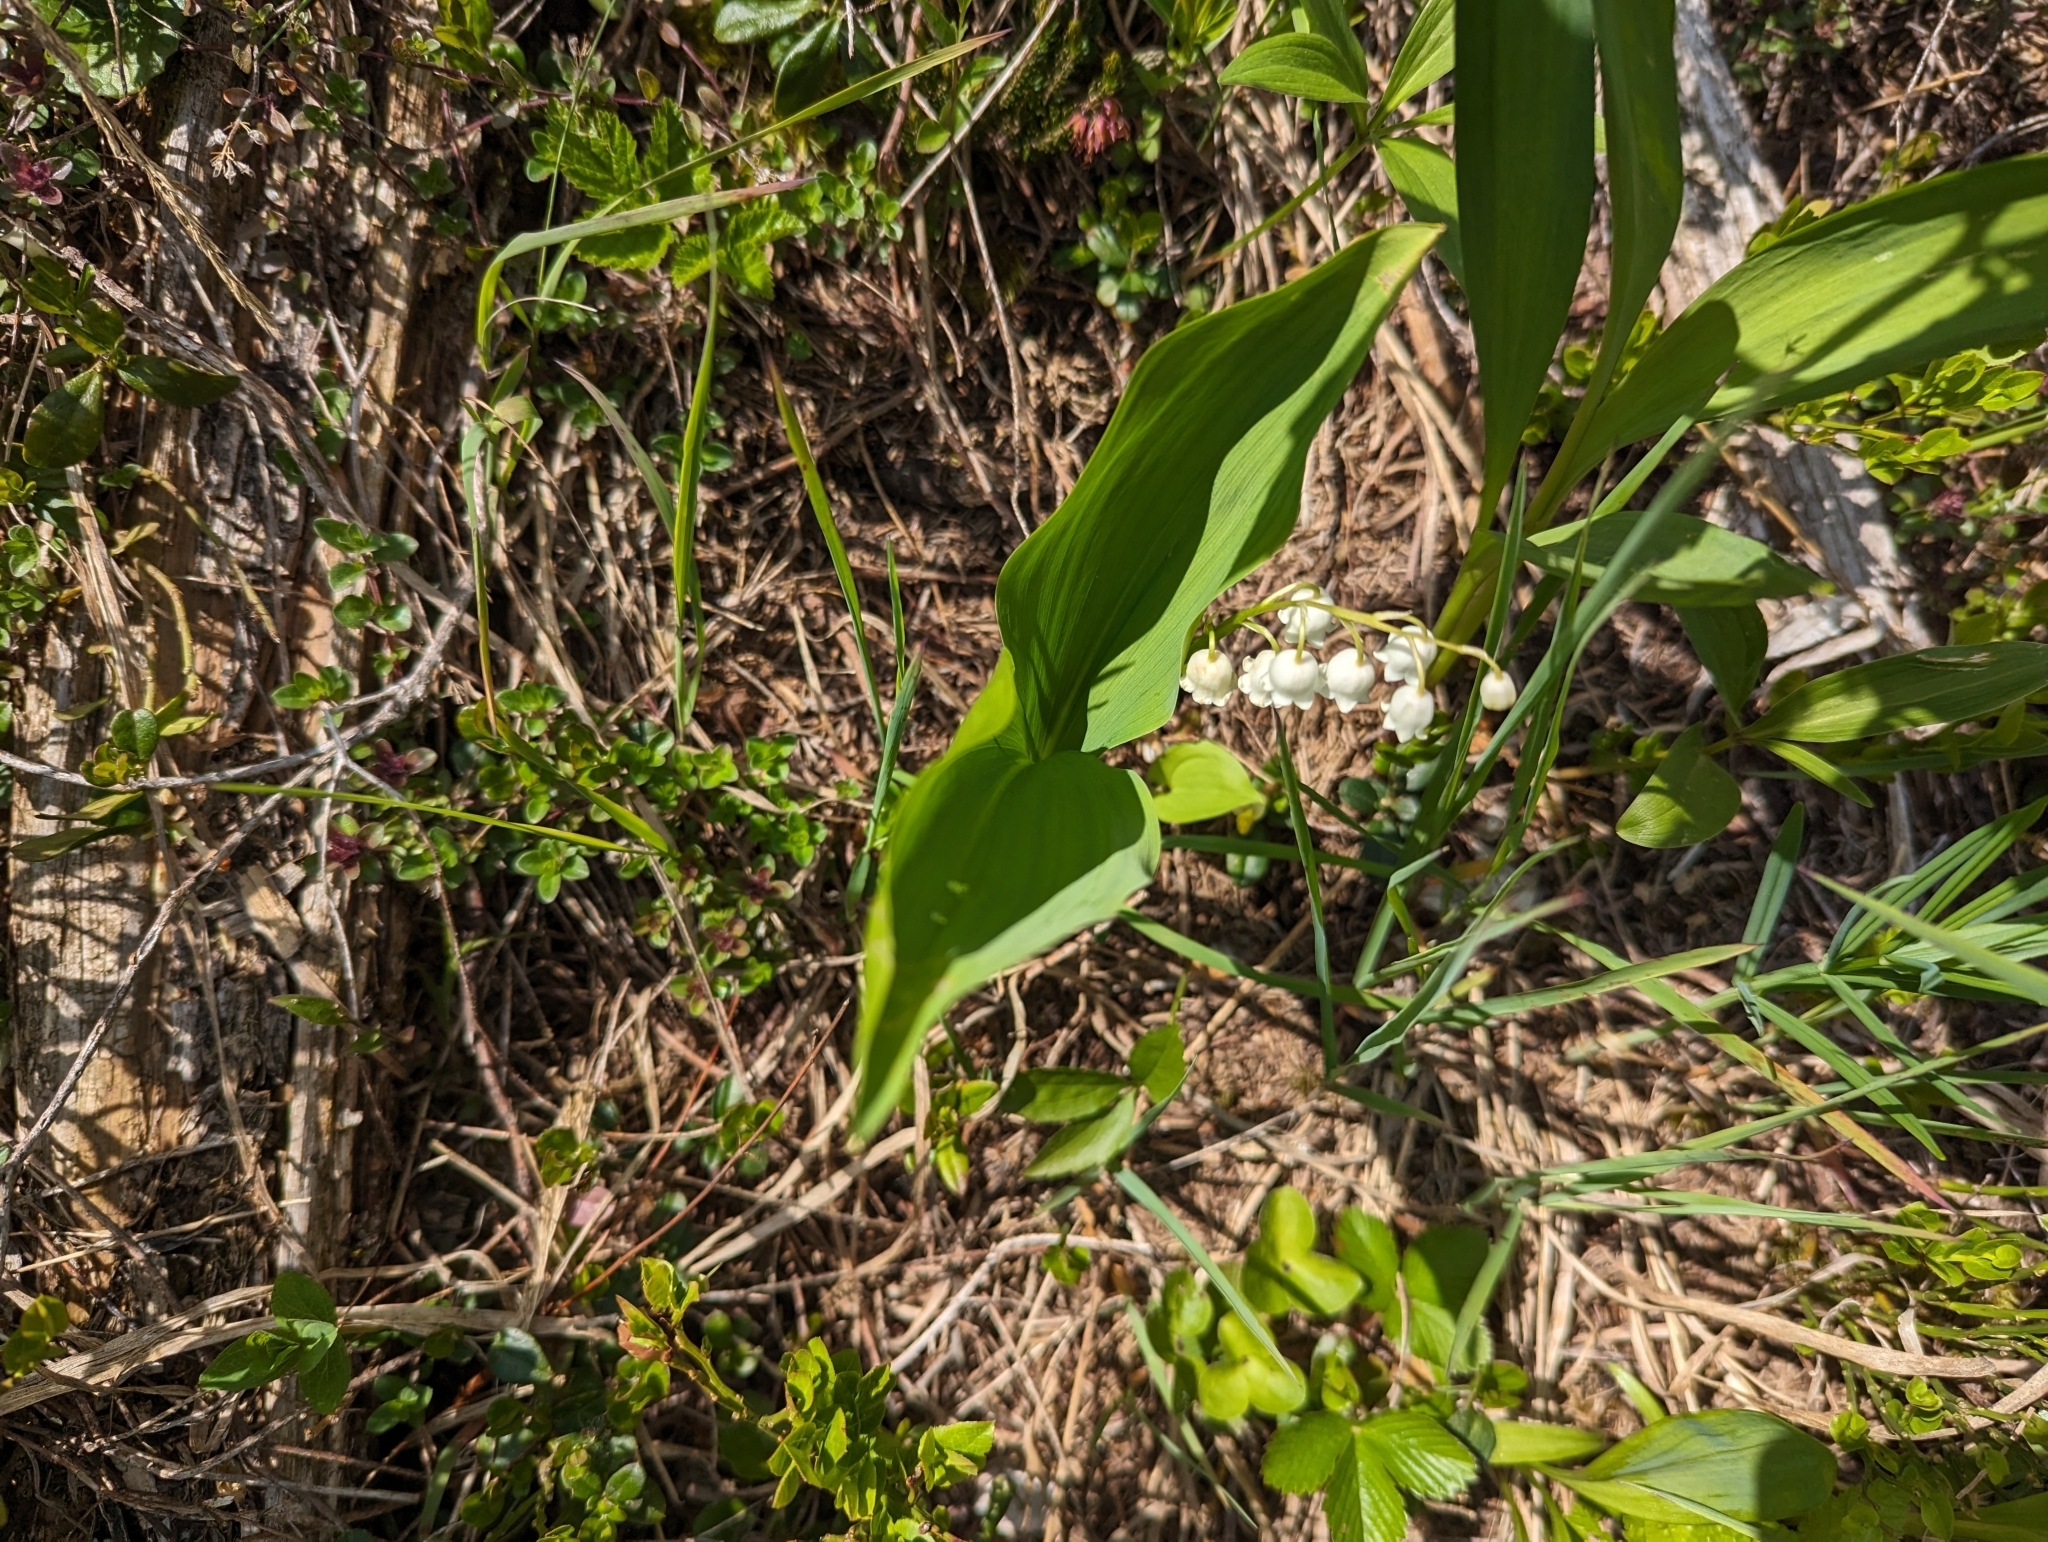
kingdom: Plantae
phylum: Tracheophyta
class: Liliopsida
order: Asparagales
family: Asparagaceae
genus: Convallaria
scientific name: Convallaria majalis
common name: Lily-of-the-valley
